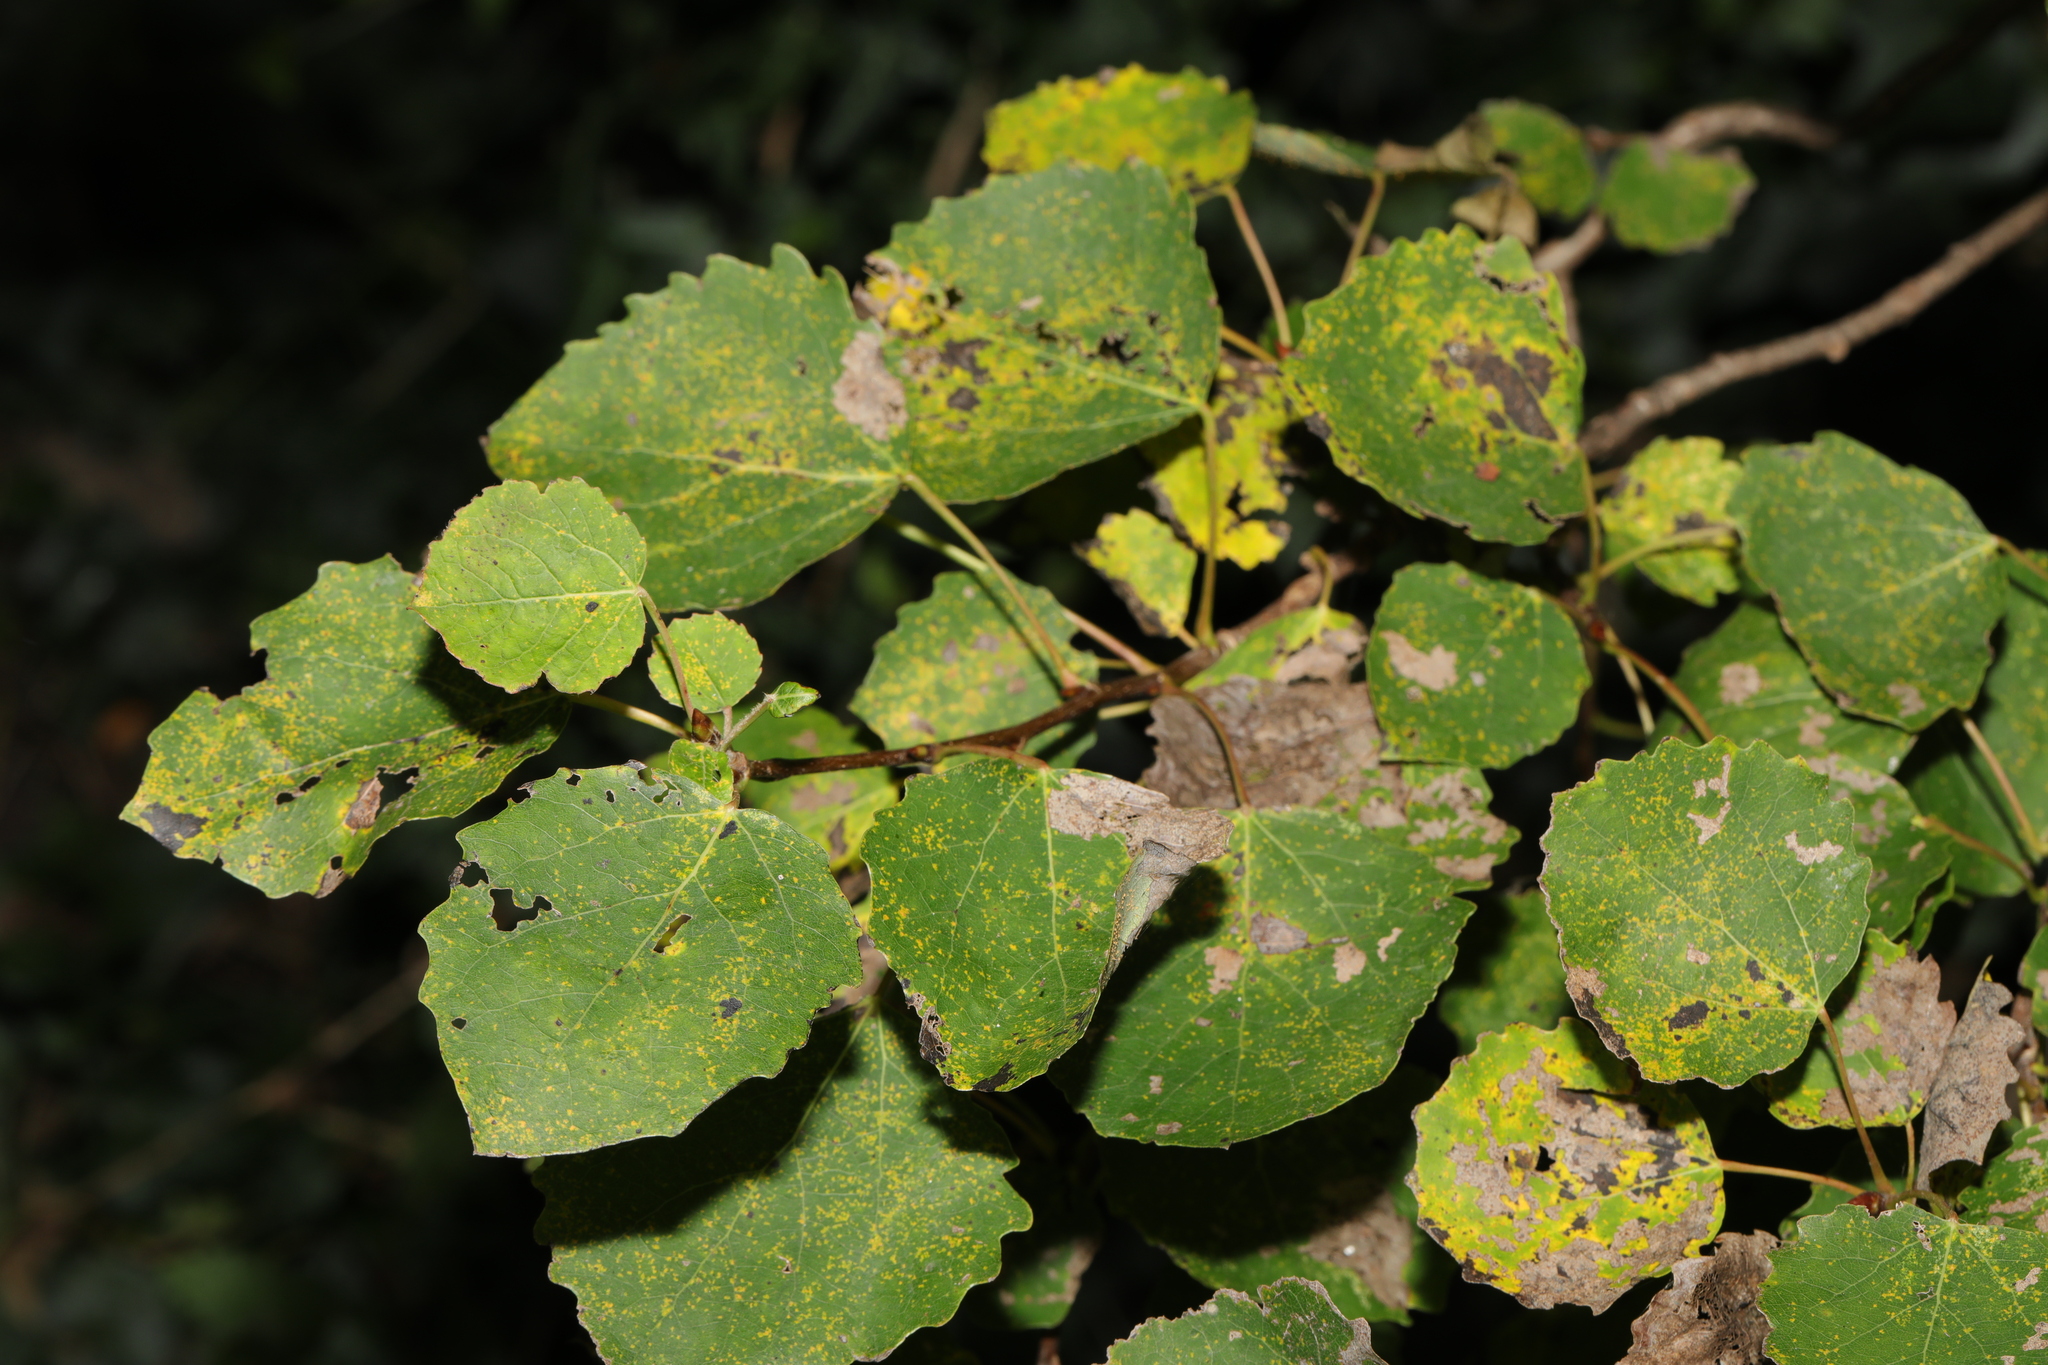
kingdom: Plantae
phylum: Tracheophyta
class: Magnoliopsida
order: Malpighiales
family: Salicaceae
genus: Populus
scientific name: Populus tremula
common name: European aspen
